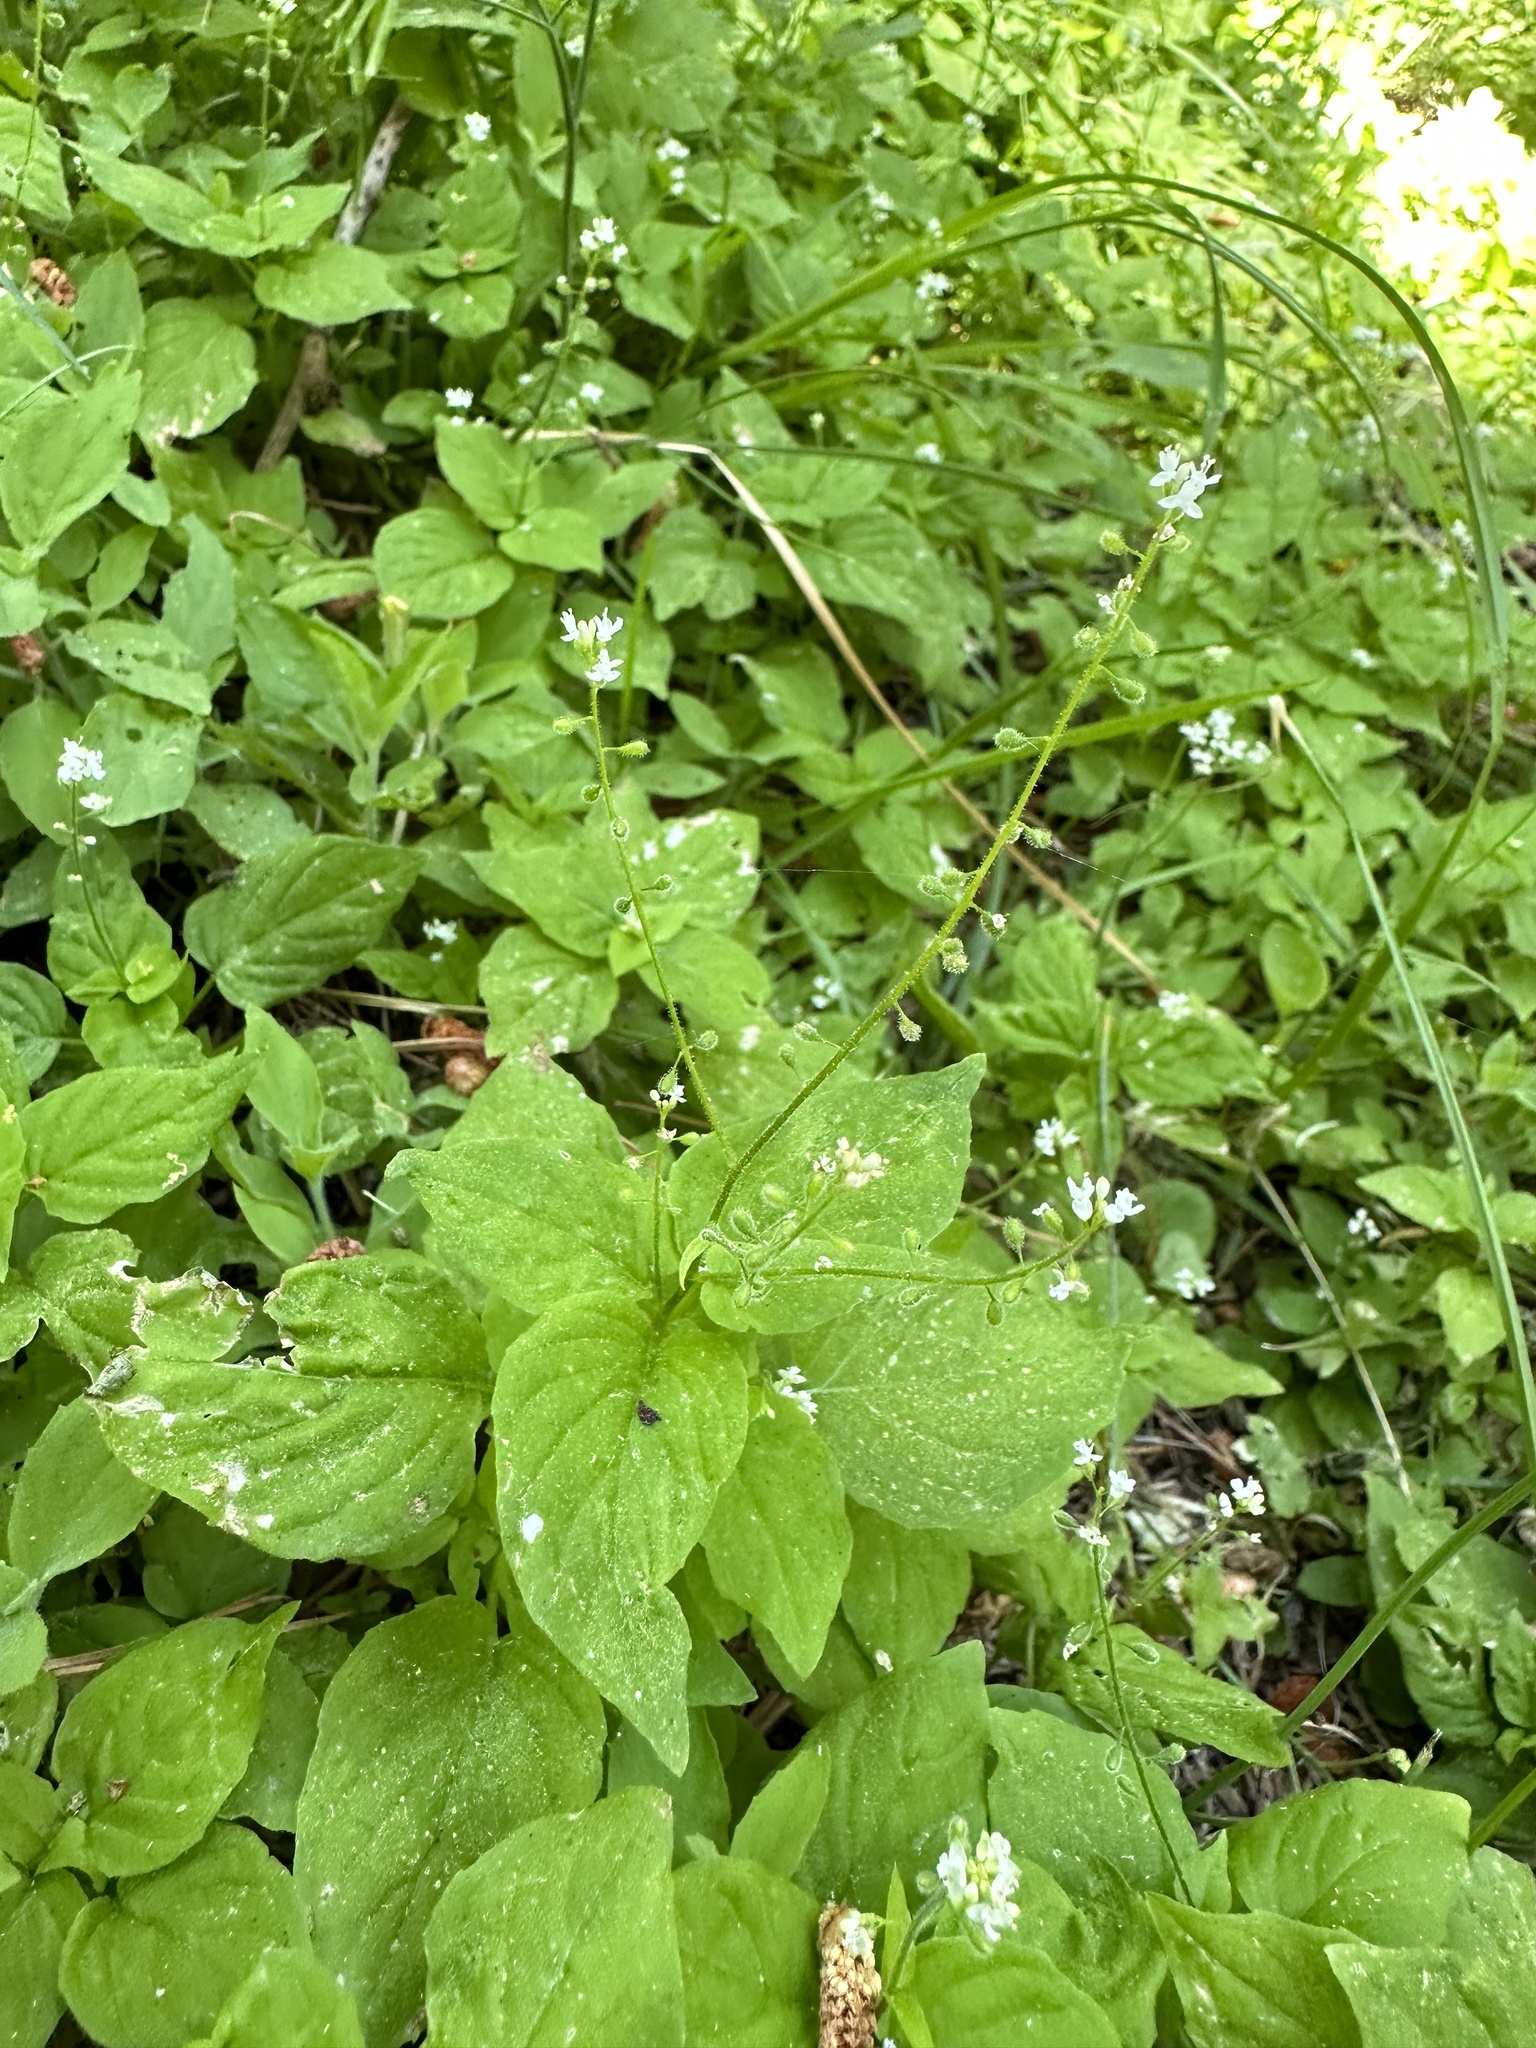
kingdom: Plantae
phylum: Tracheophyta
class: Magnoliopsida
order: Myrtales
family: Onagraceae
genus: Circaea
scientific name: Circaea alpina
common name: Alpine enchanter's-nightshade
